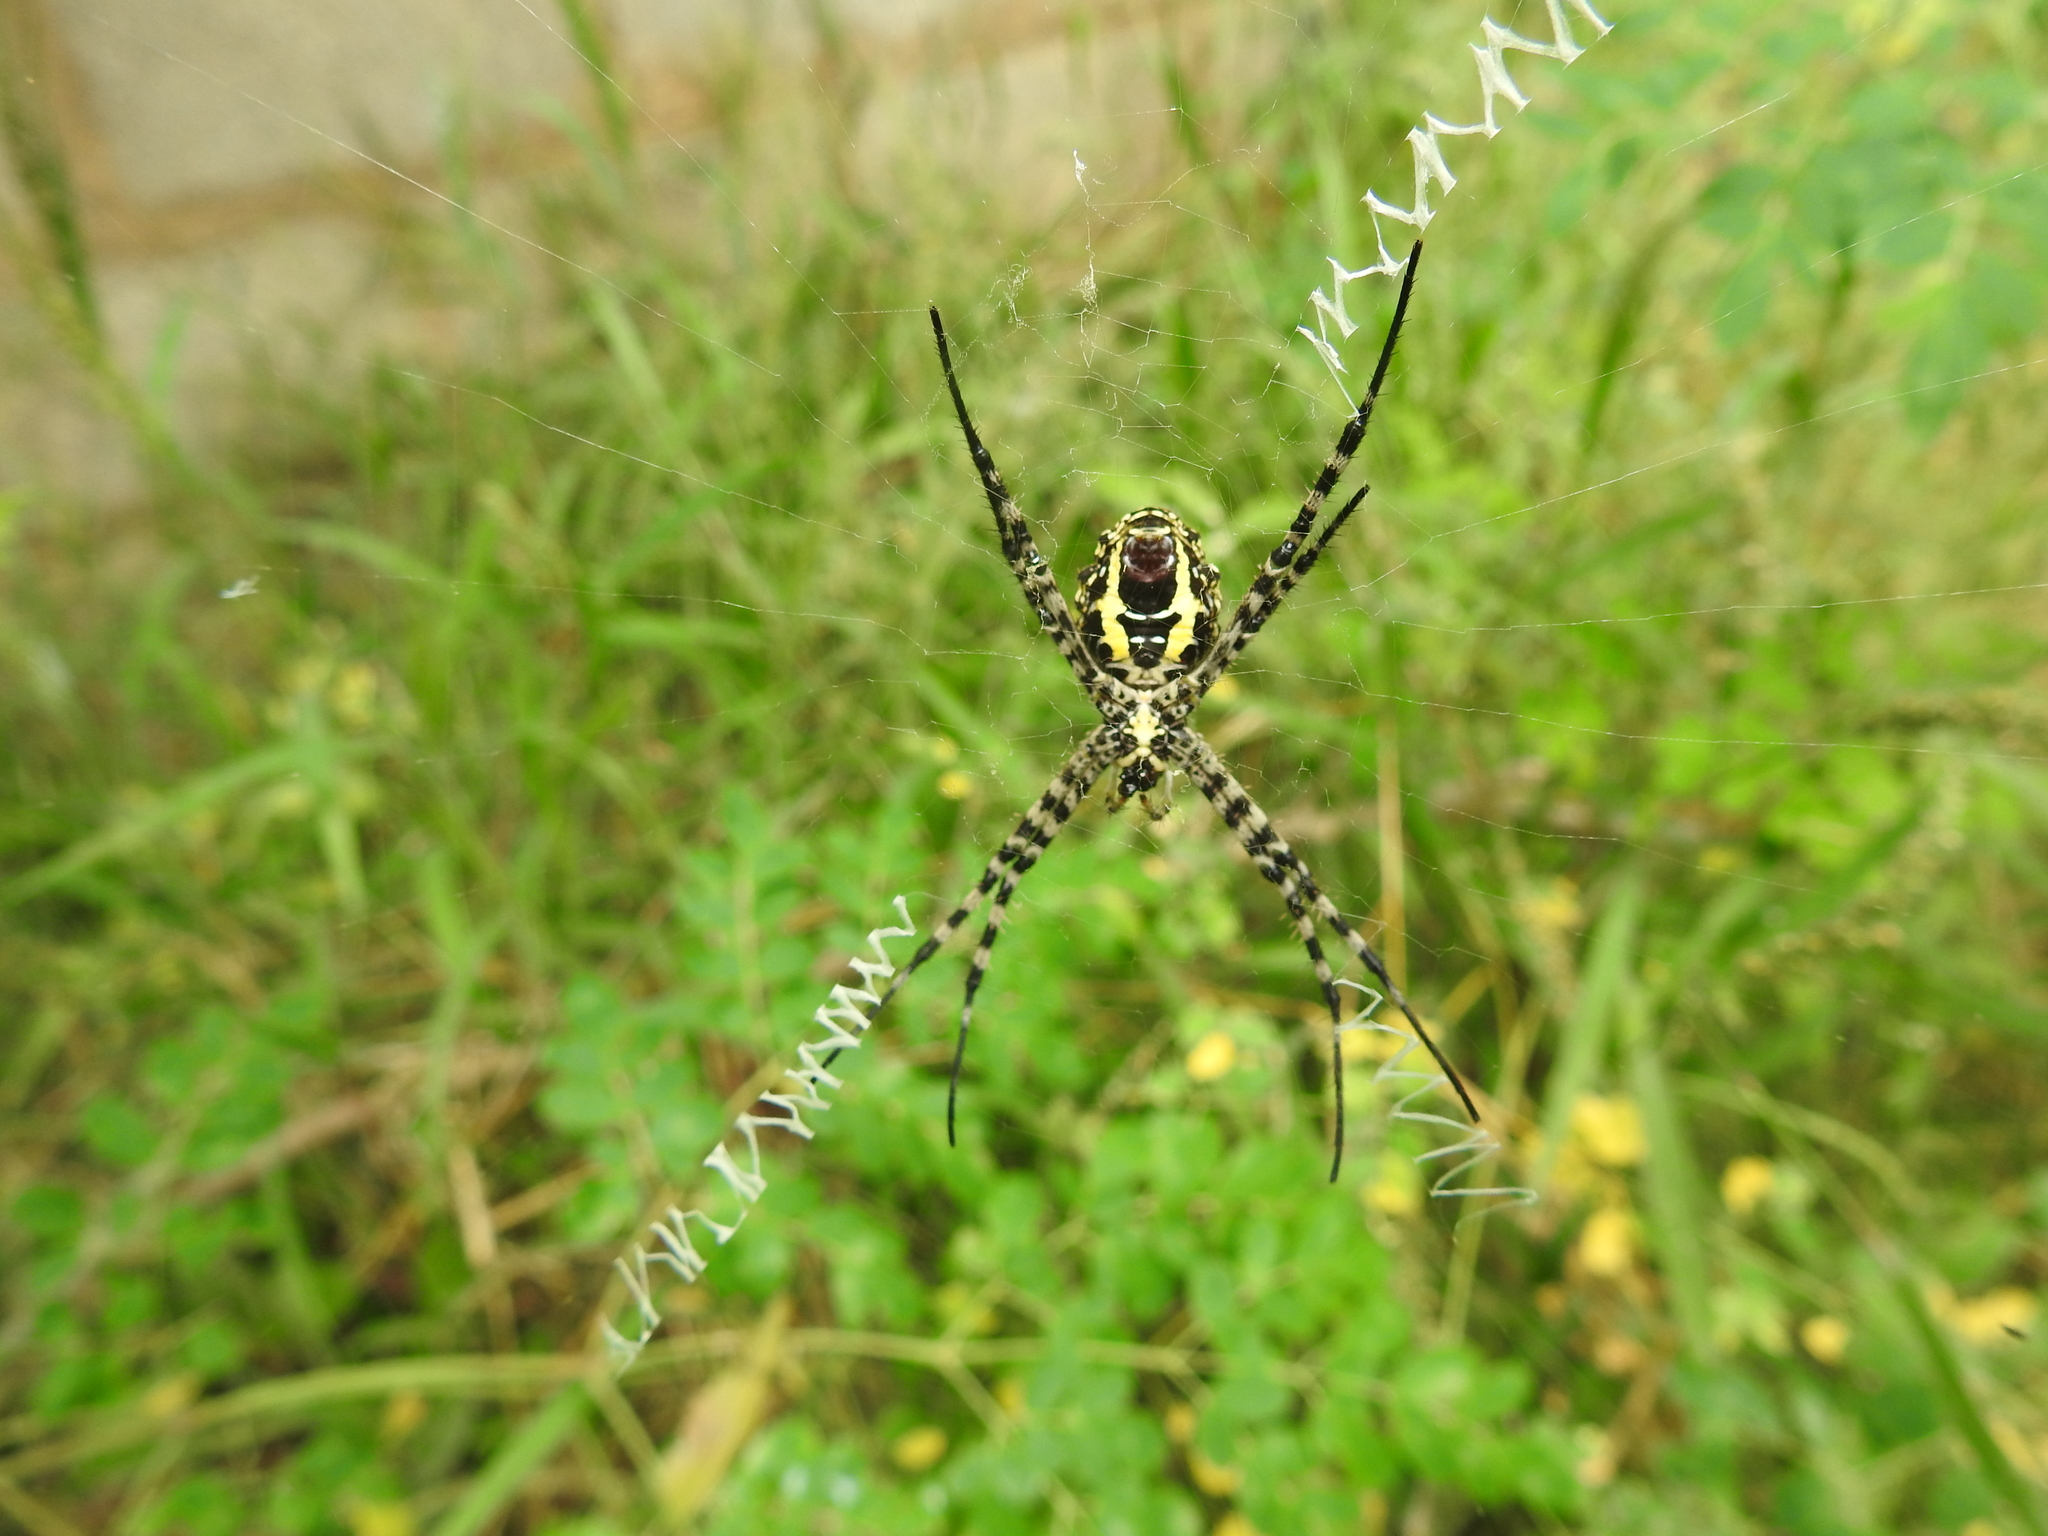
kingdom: Animalia
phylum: Arthropoda
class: Arachnida
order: Araneae
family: Araneidae
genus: Argiope
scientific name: Argiope aemula
